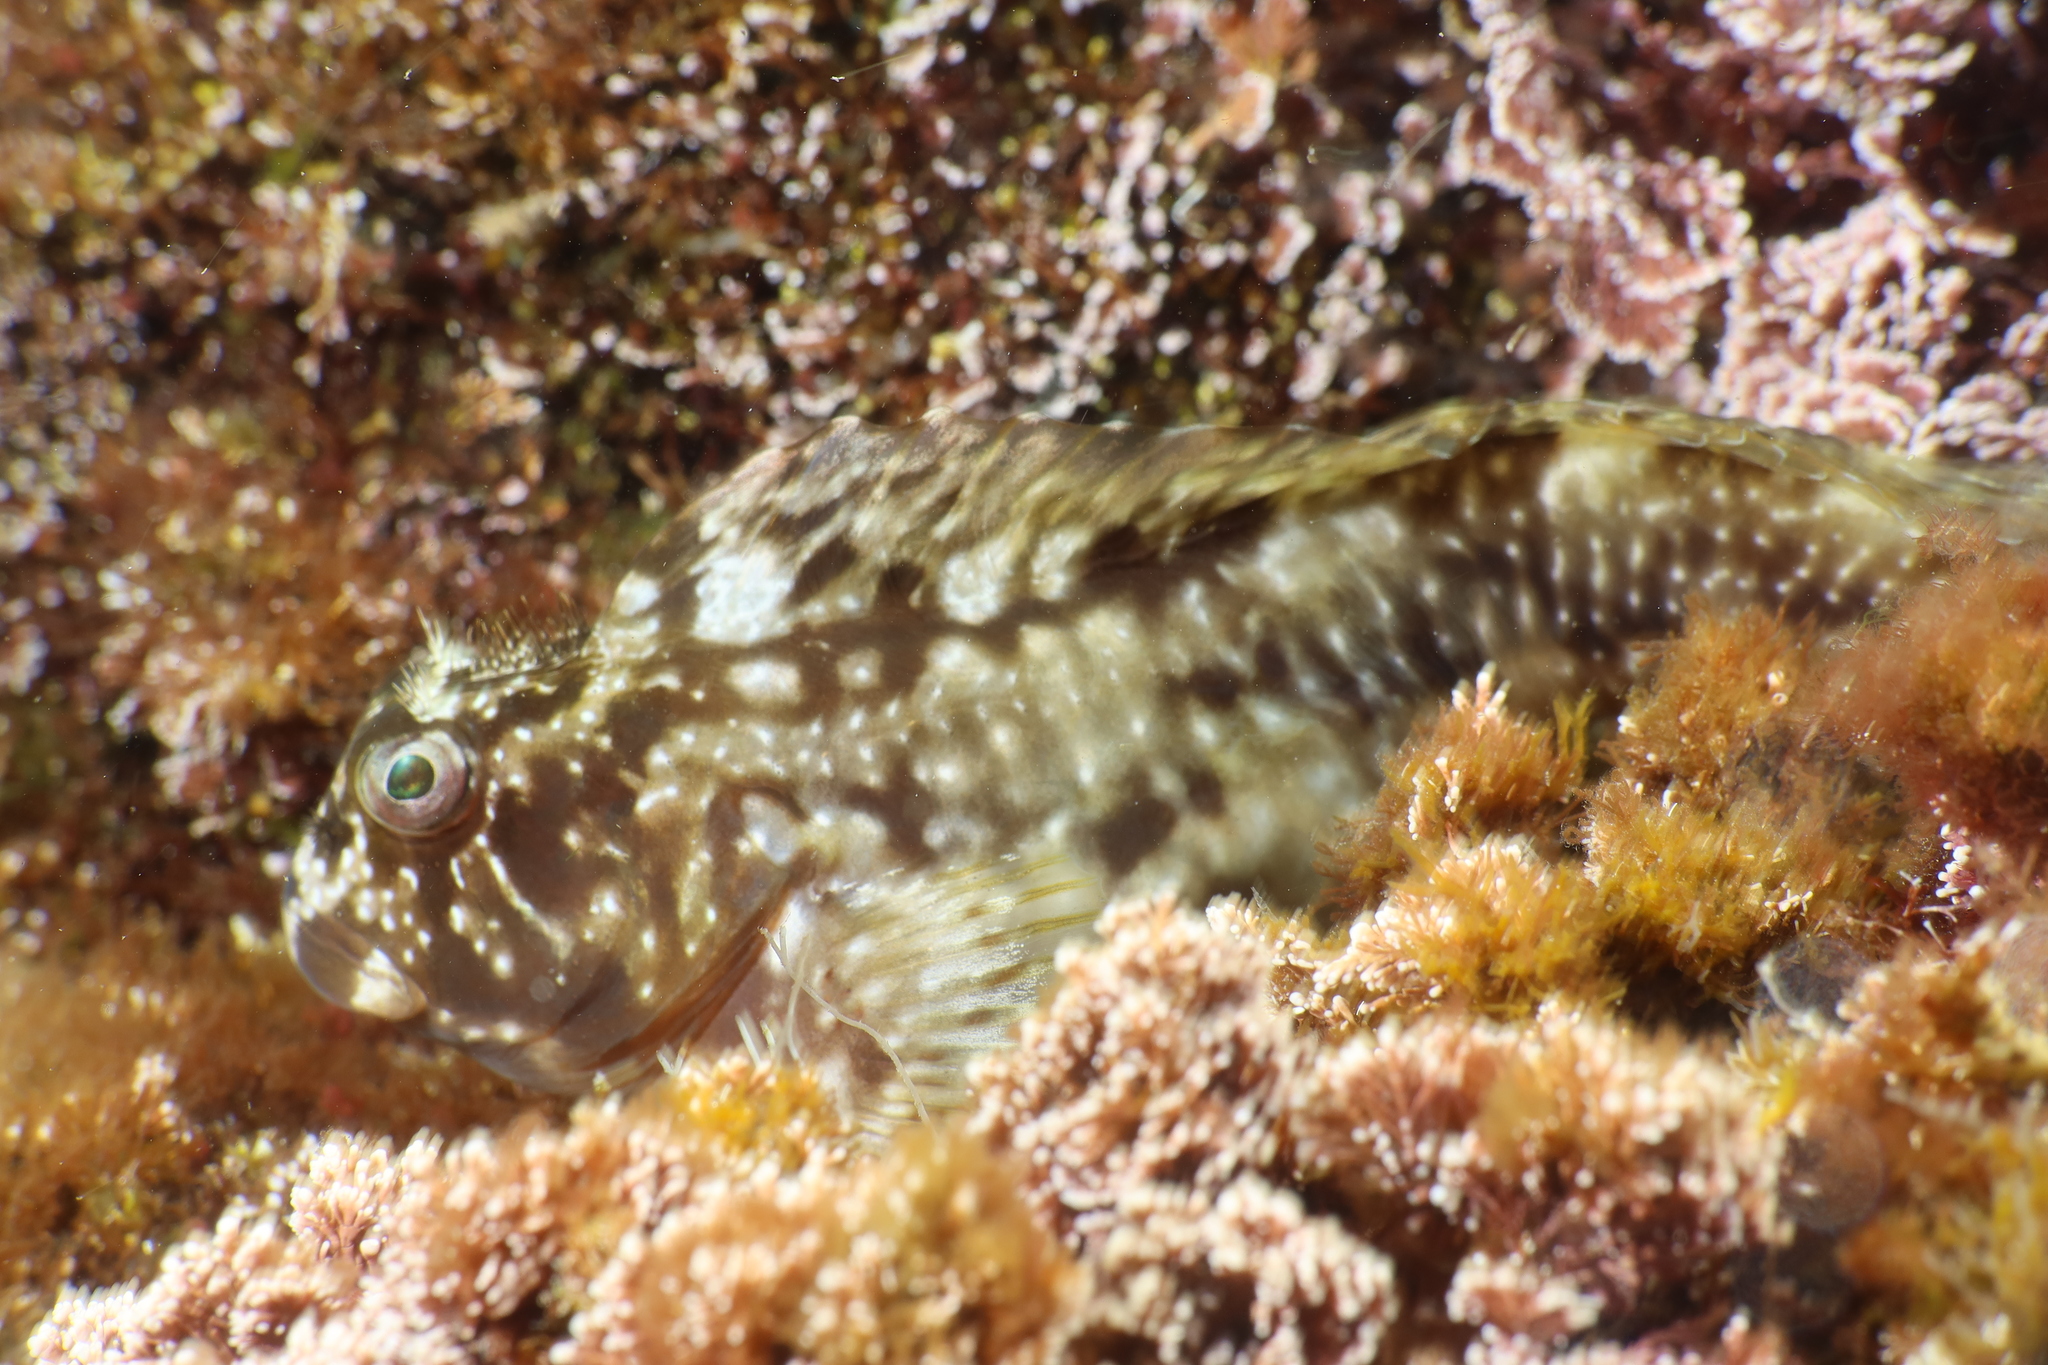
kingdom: Animalia
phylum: Chordata
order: Perciformes
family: Blenniidae
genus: Scartella
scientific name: Scartella cristata
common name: Molly miller
